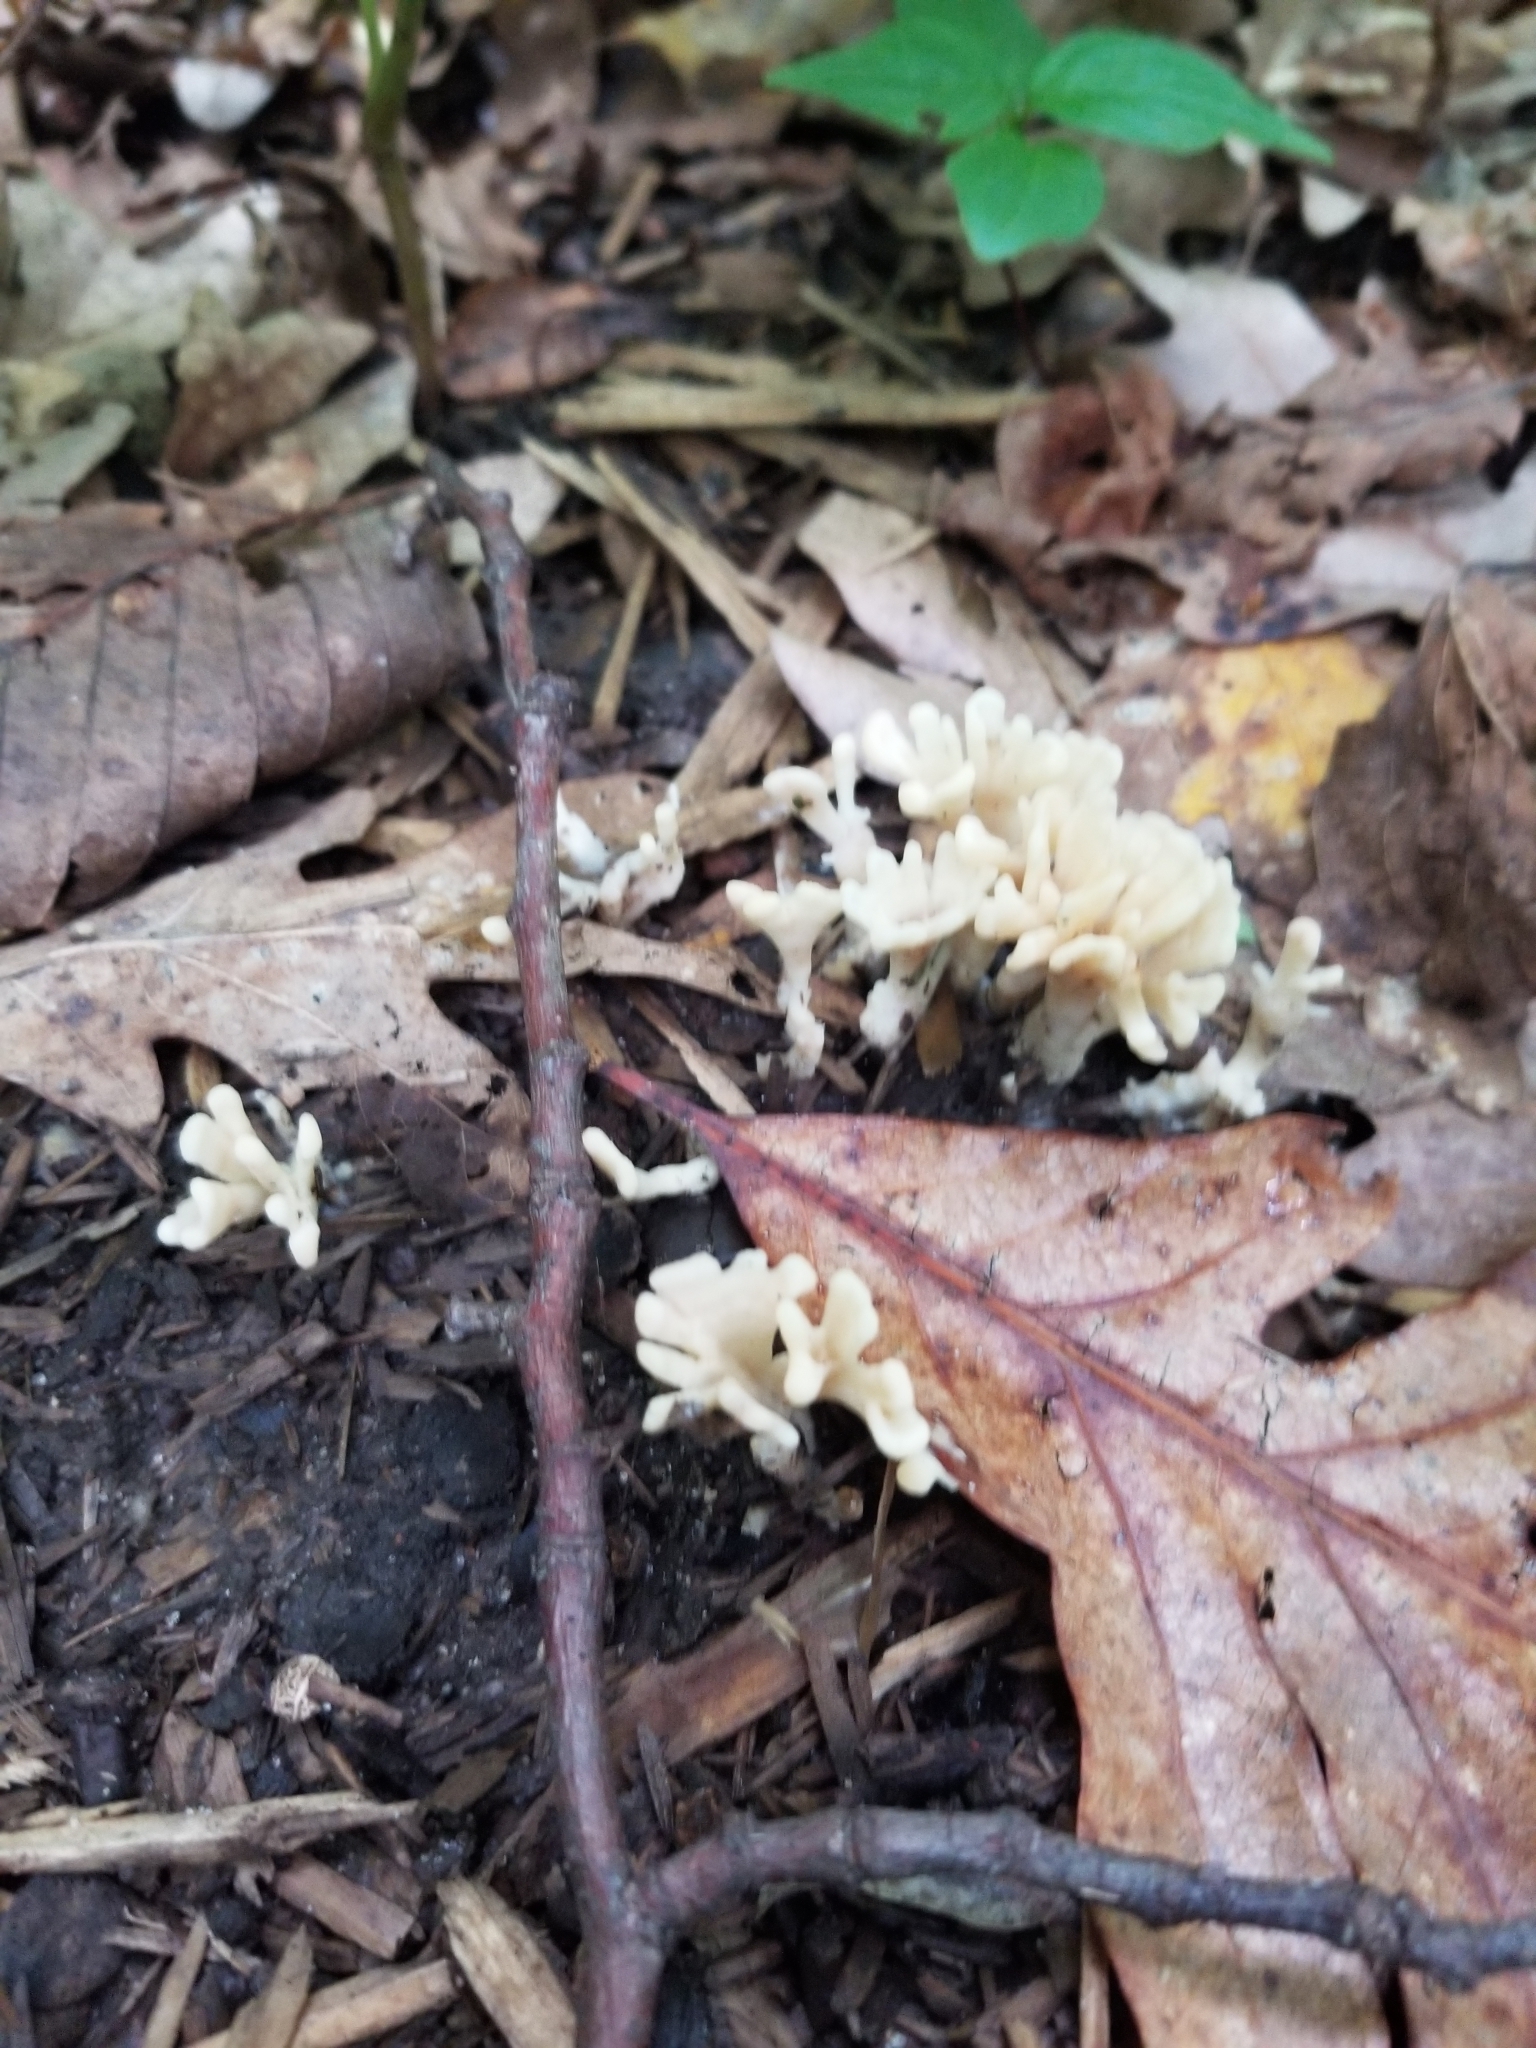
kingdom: Fungi
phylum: Basidiomycota
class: Agaricomycetes
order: Sebacinales
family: Sebacinaceae
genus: Sebacina
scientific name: Sebacina schweinitzii
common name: Jellied false coral fungus
